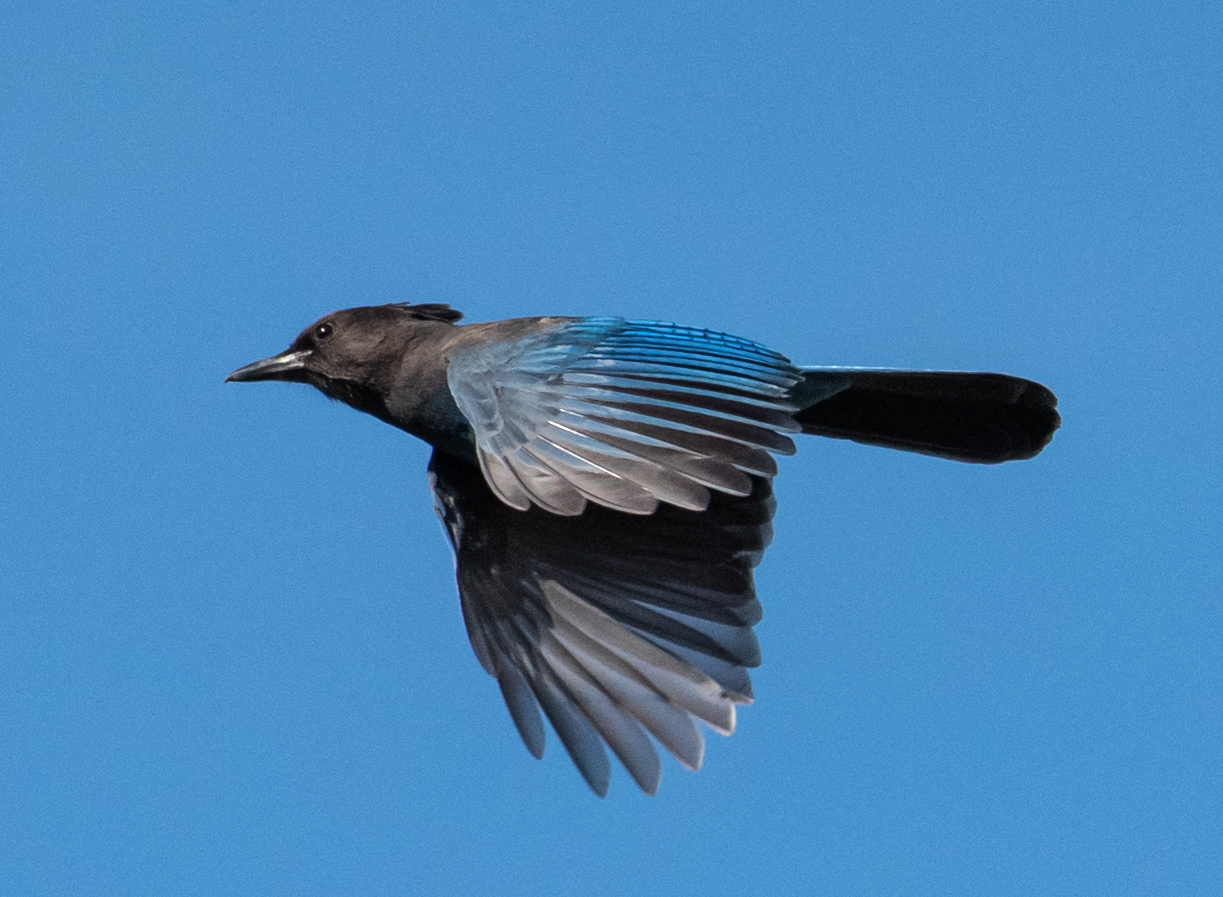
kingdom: Animalia
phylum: Chordata
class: Aves
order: Passeriformes
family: Corvidae
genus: Cyanocitta
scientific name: Cyanocitta stelleri
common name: Steller's jay
